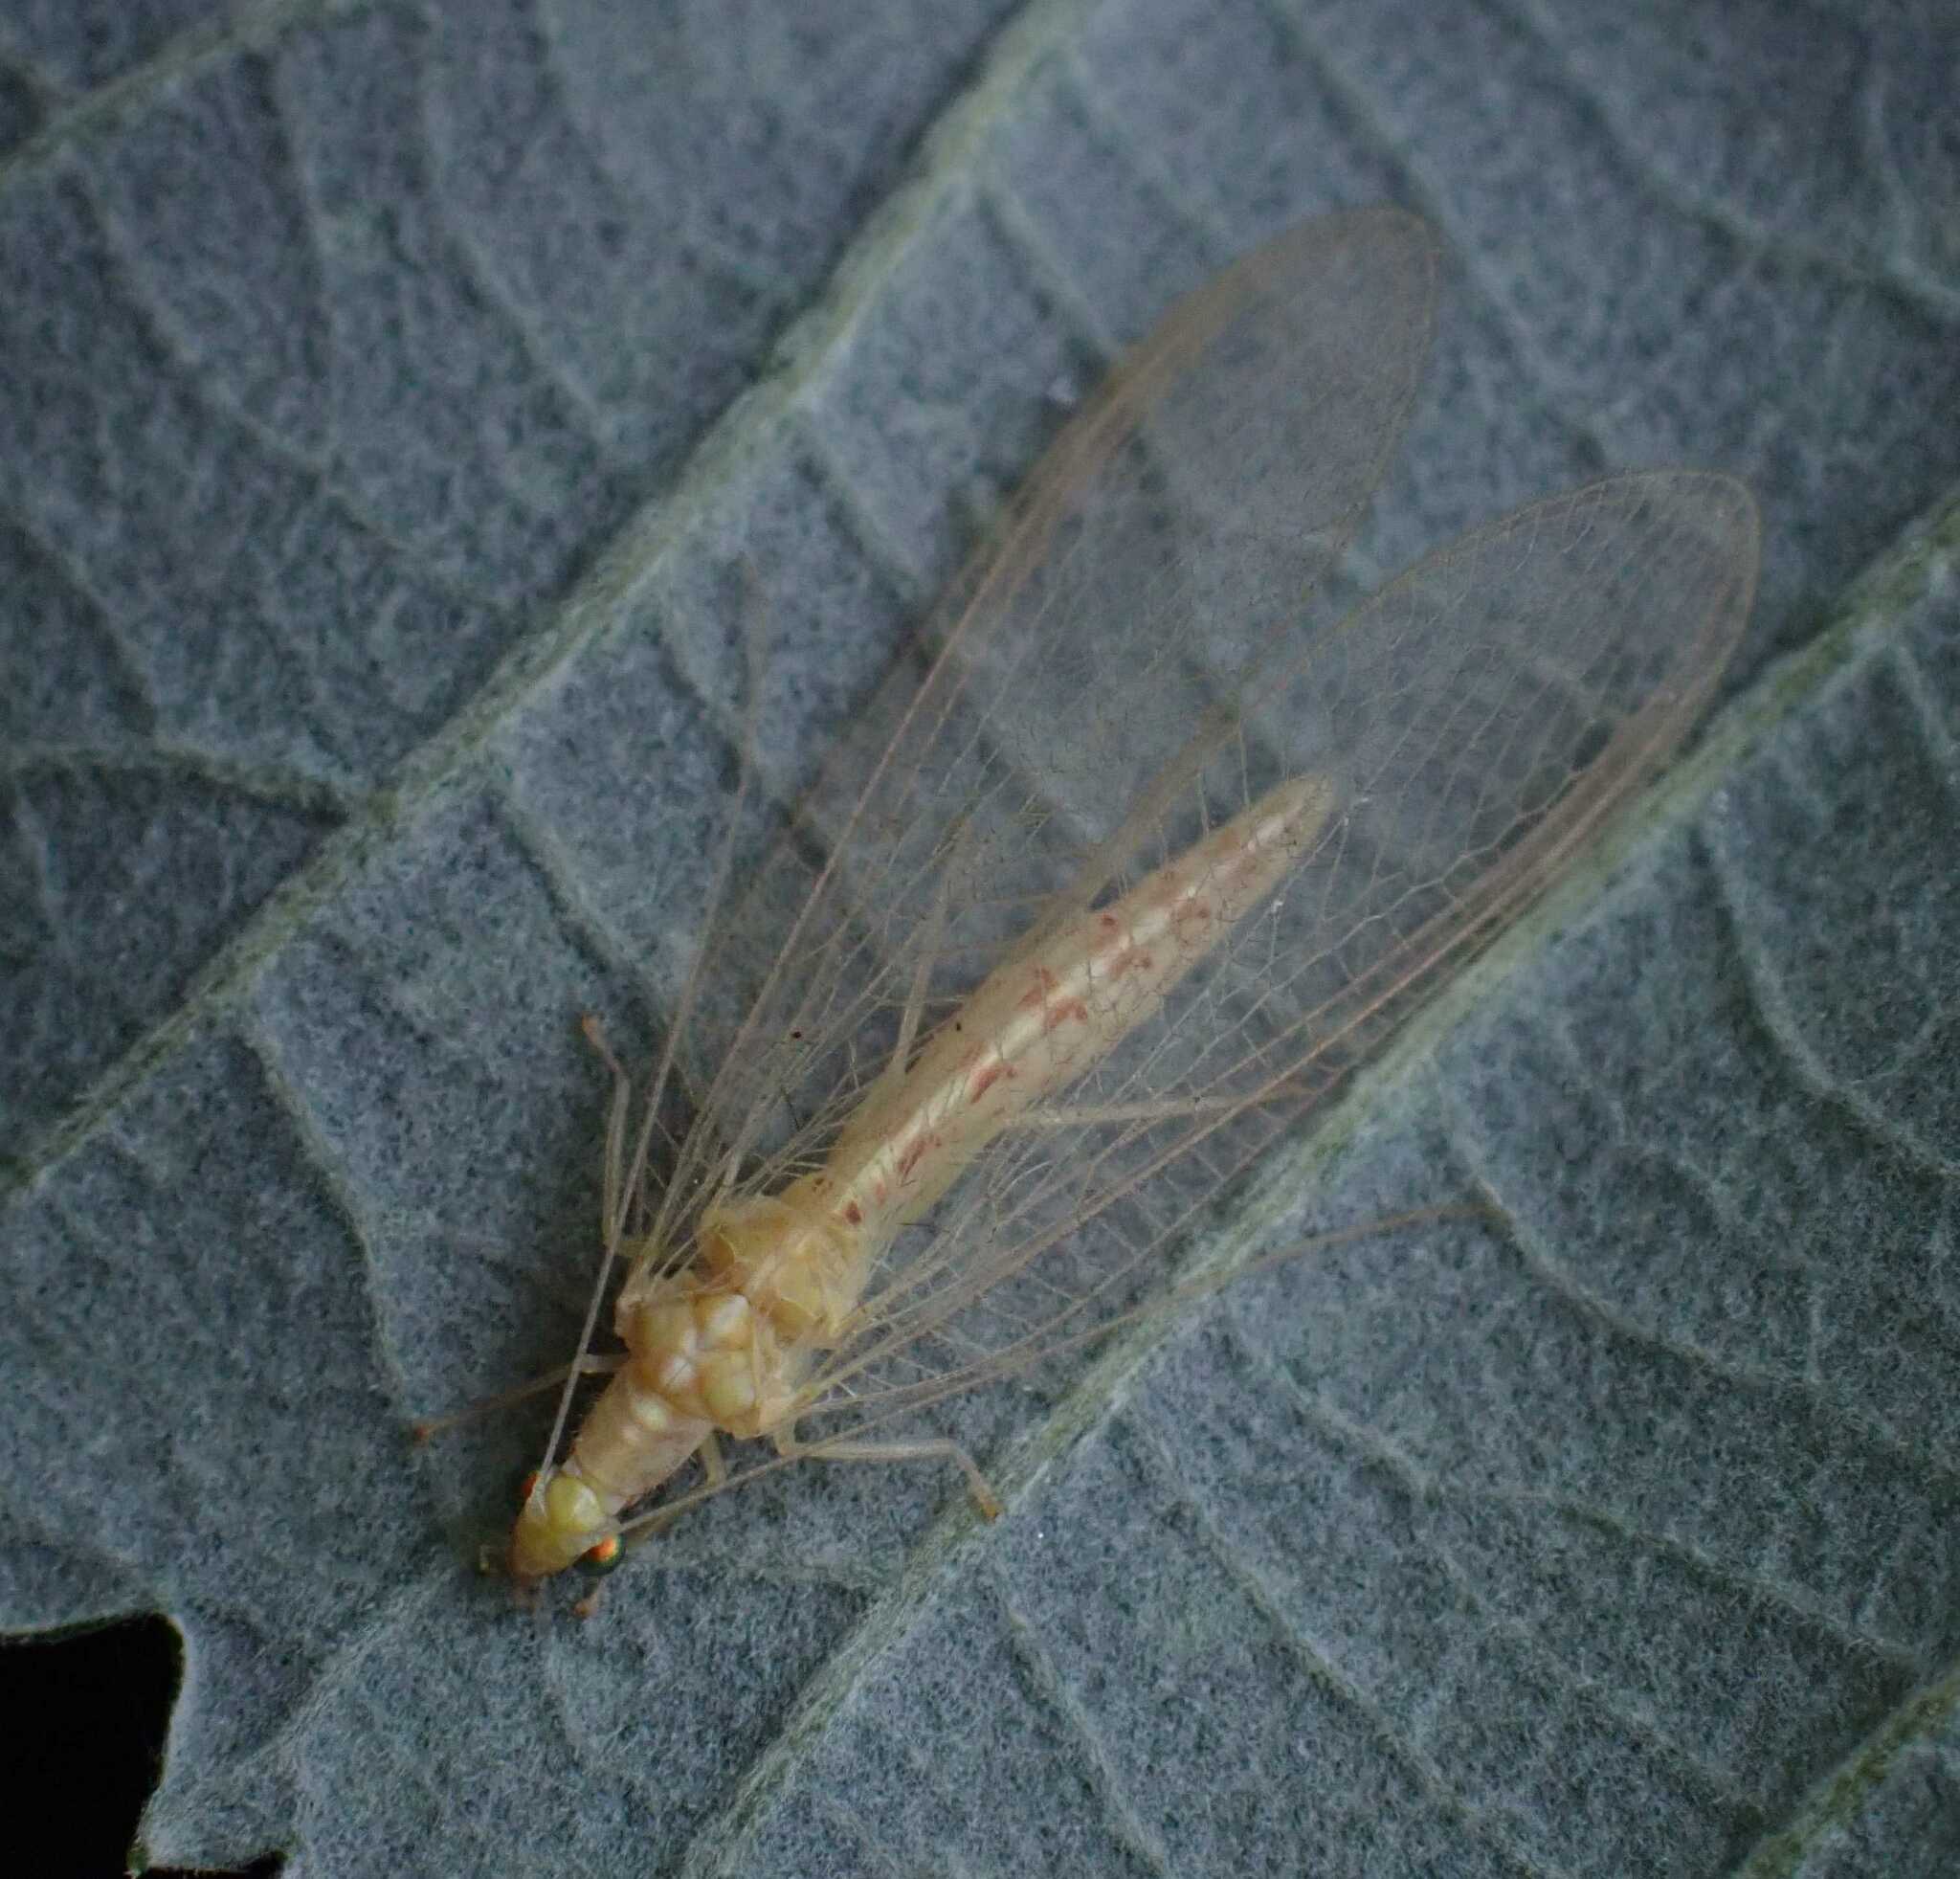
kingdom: Animalia
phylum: Arthropoda
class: Insecta
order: Neuroptera
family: Chrysopidae
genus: Chrysoperla
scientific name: Chrysoperla
